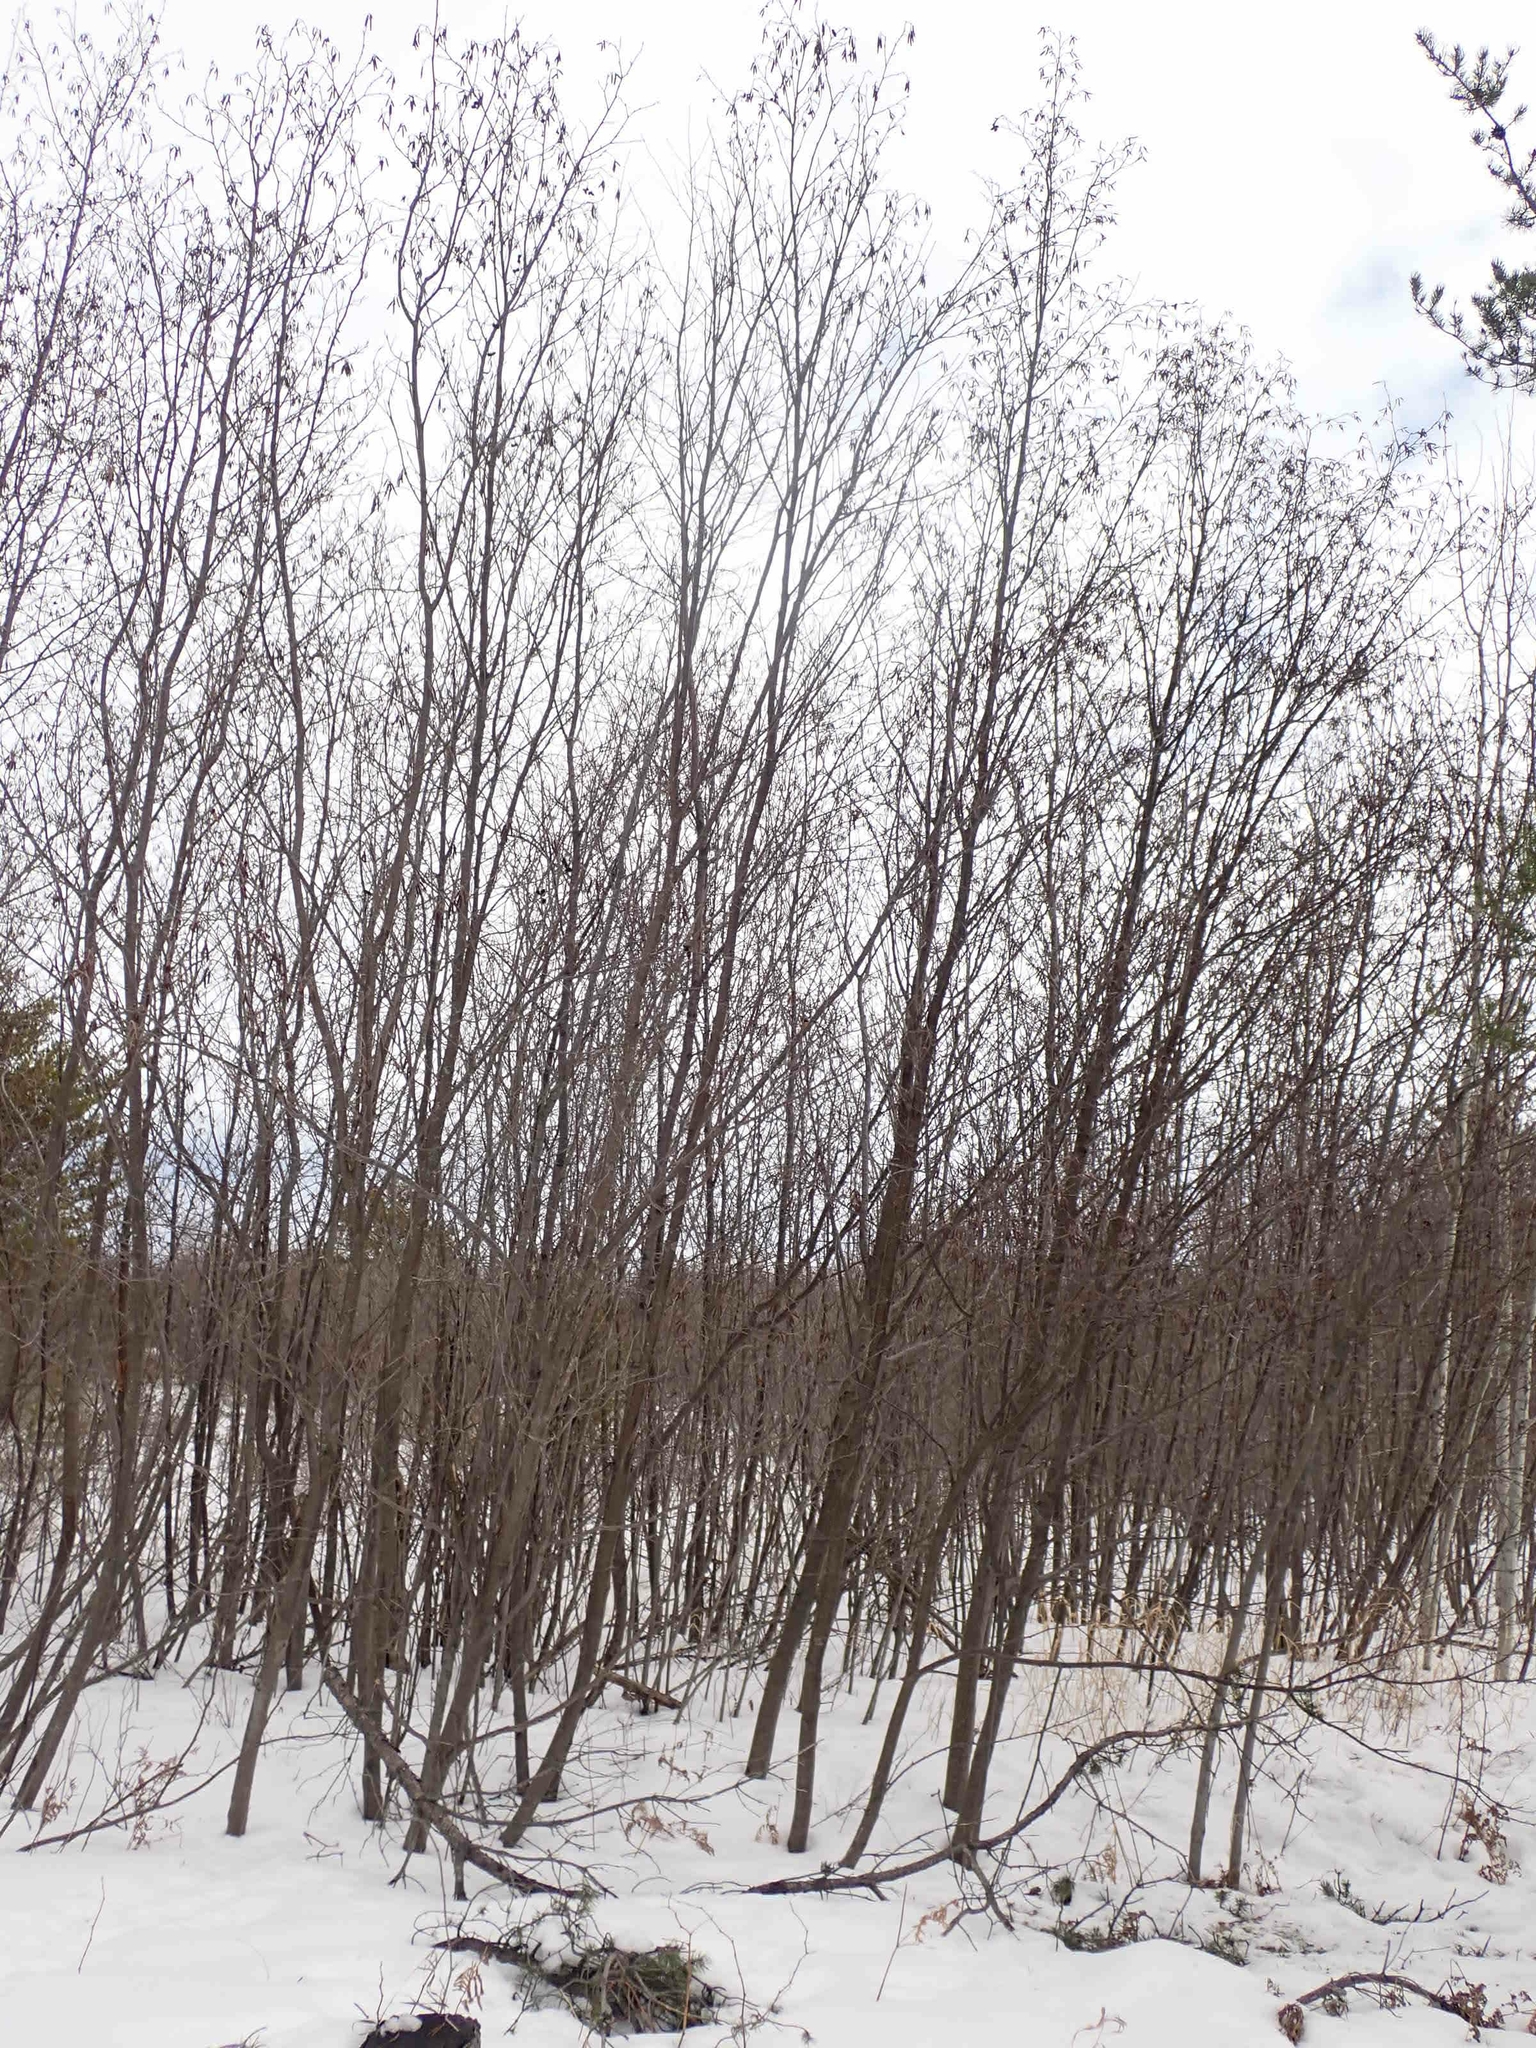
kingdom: Plantae
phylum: Tracheophyta
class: Magnoliopsida
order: Fagales
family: Betulaceae
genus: Alnus
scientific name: Alnus incana
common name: Grey alder
